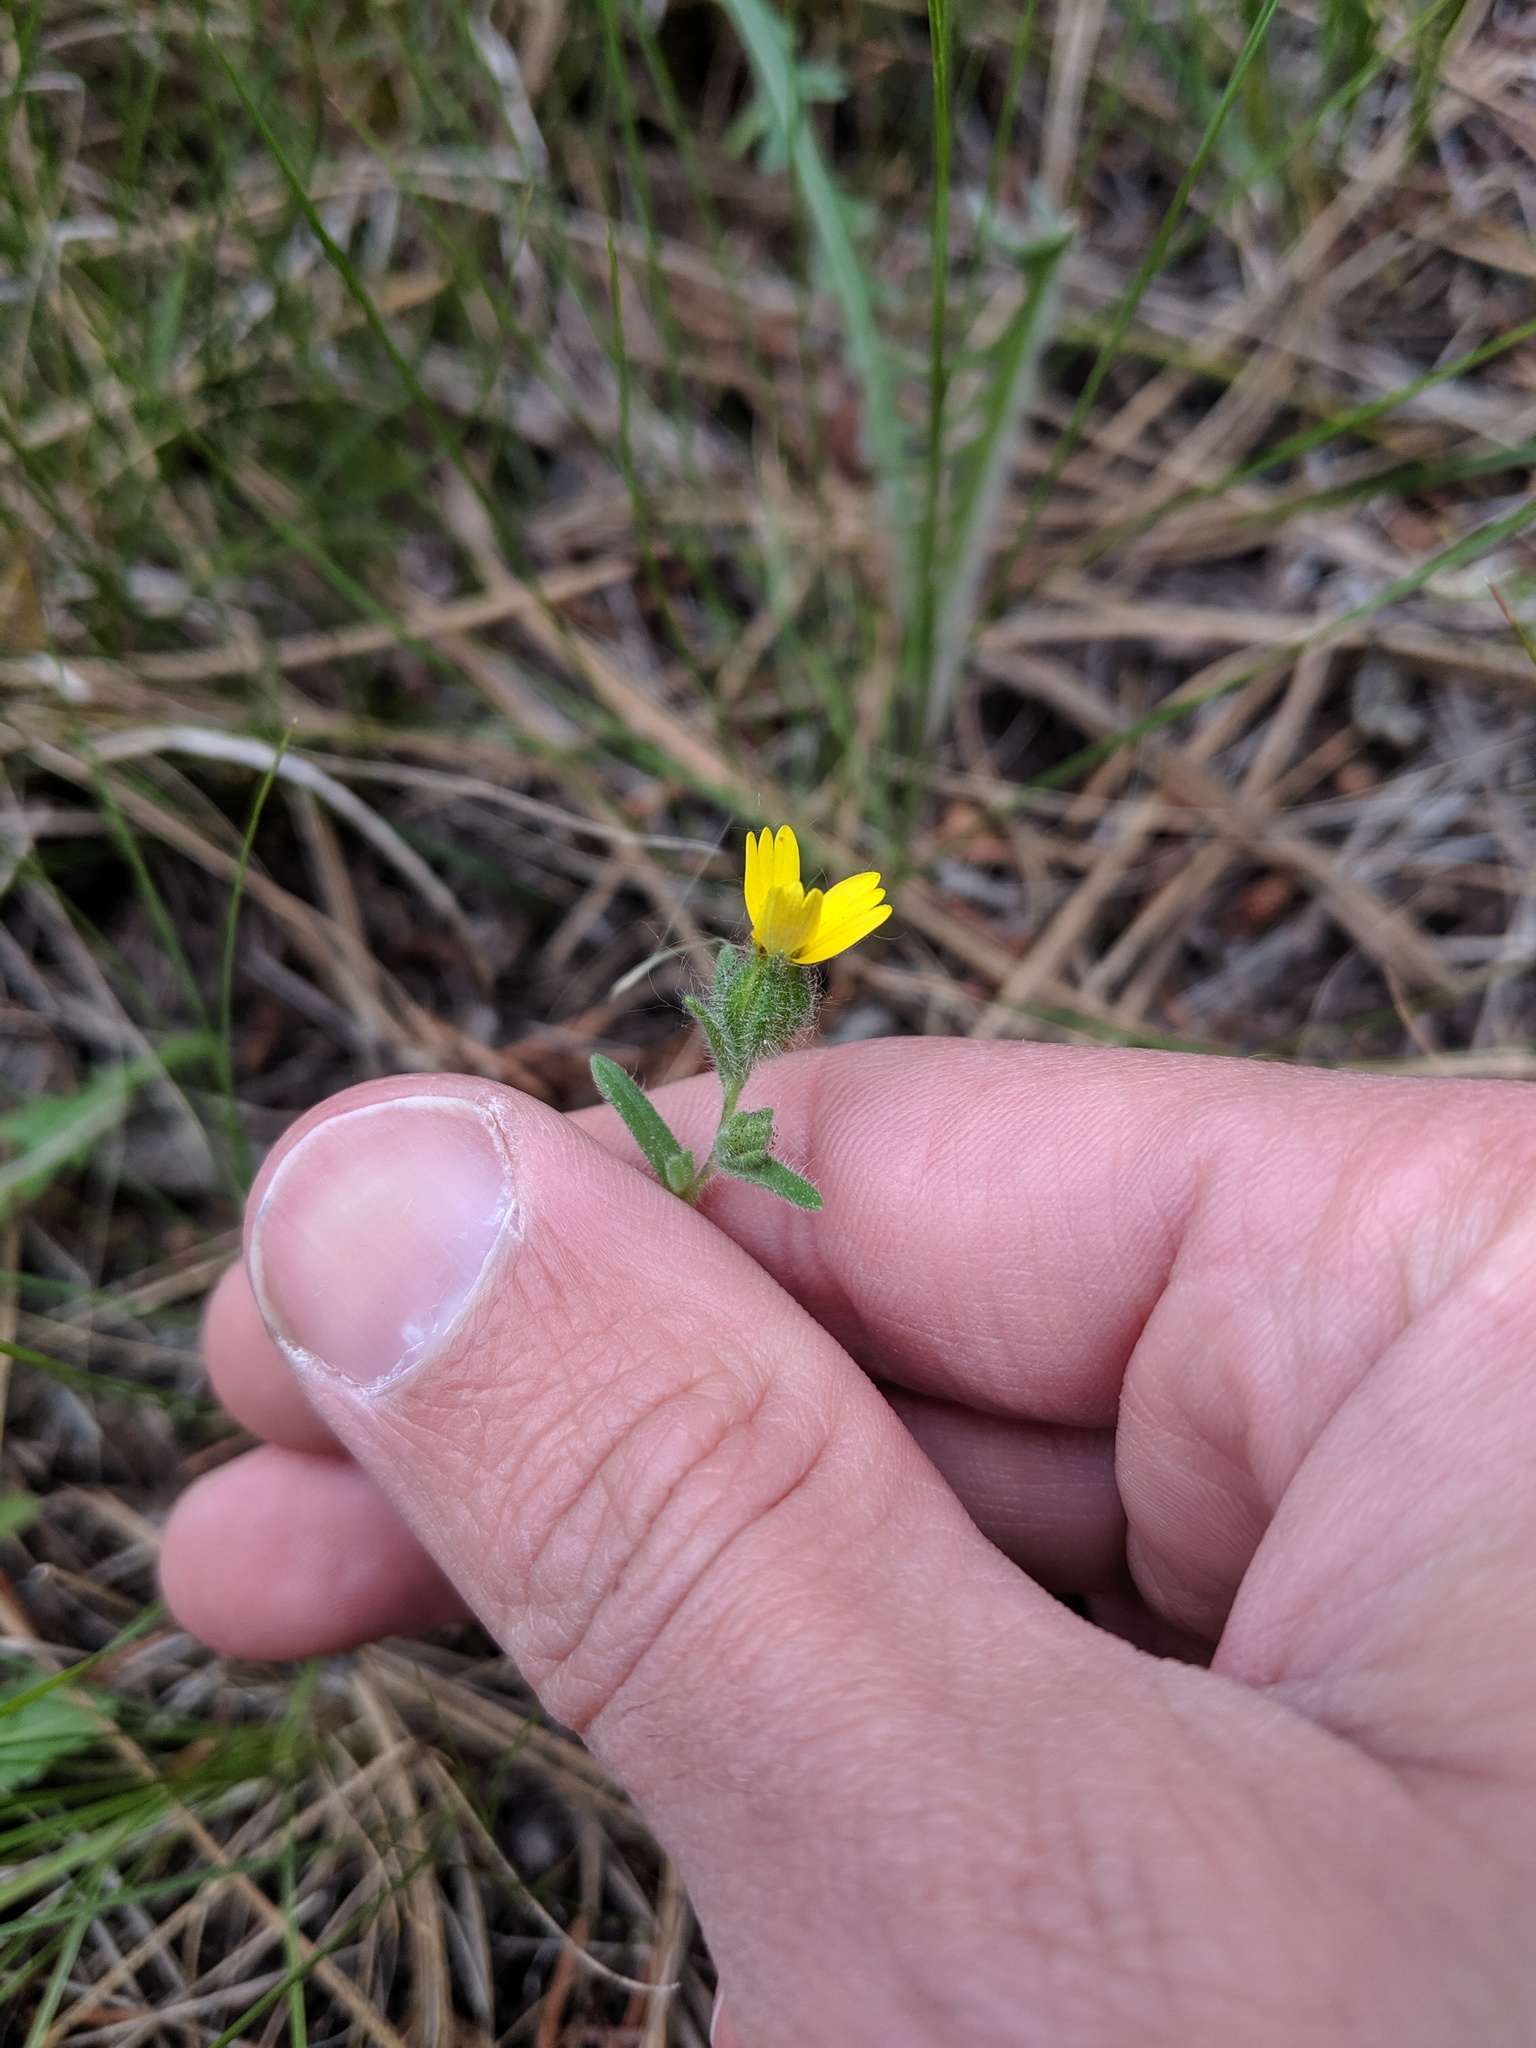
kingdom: Plantae
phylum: Tracheophyta
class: Magnoliopsida
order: Asterales
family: Asteraceae
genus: Madia
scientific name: Madia glomerata
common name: Mountain tarweed
